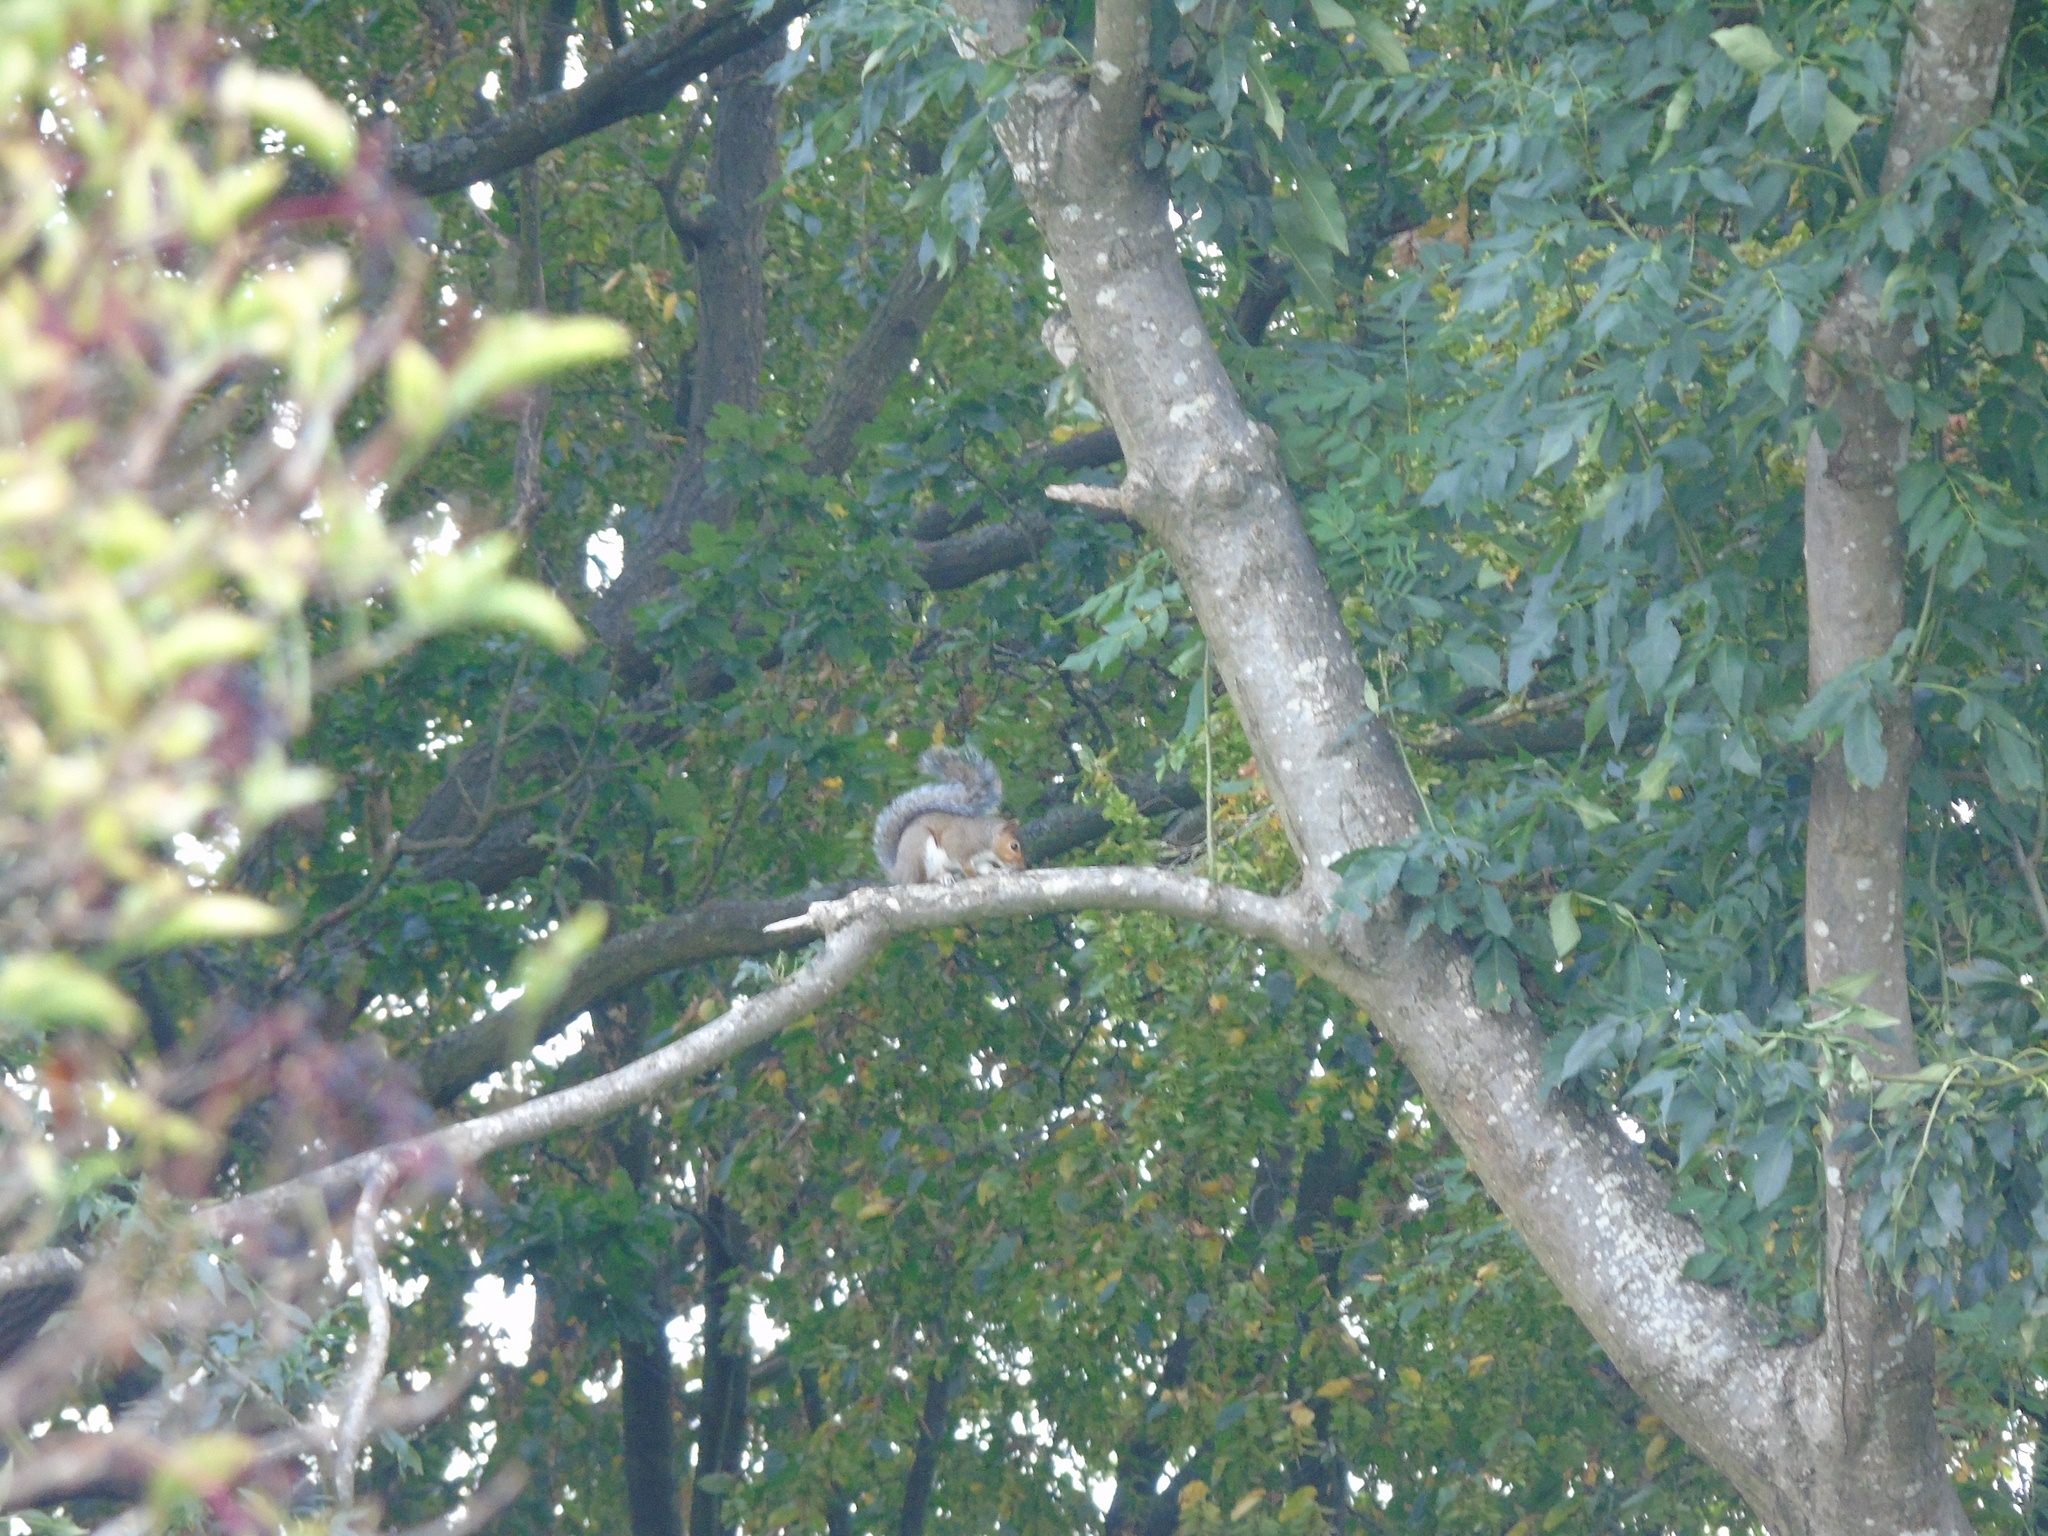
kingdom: Animalia
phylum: Chordata
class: Mammalia
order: Rodentia
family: Sciuridae
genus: Sciurus
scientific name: Sciurus carolinensis
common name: Eastern gray squirrel
